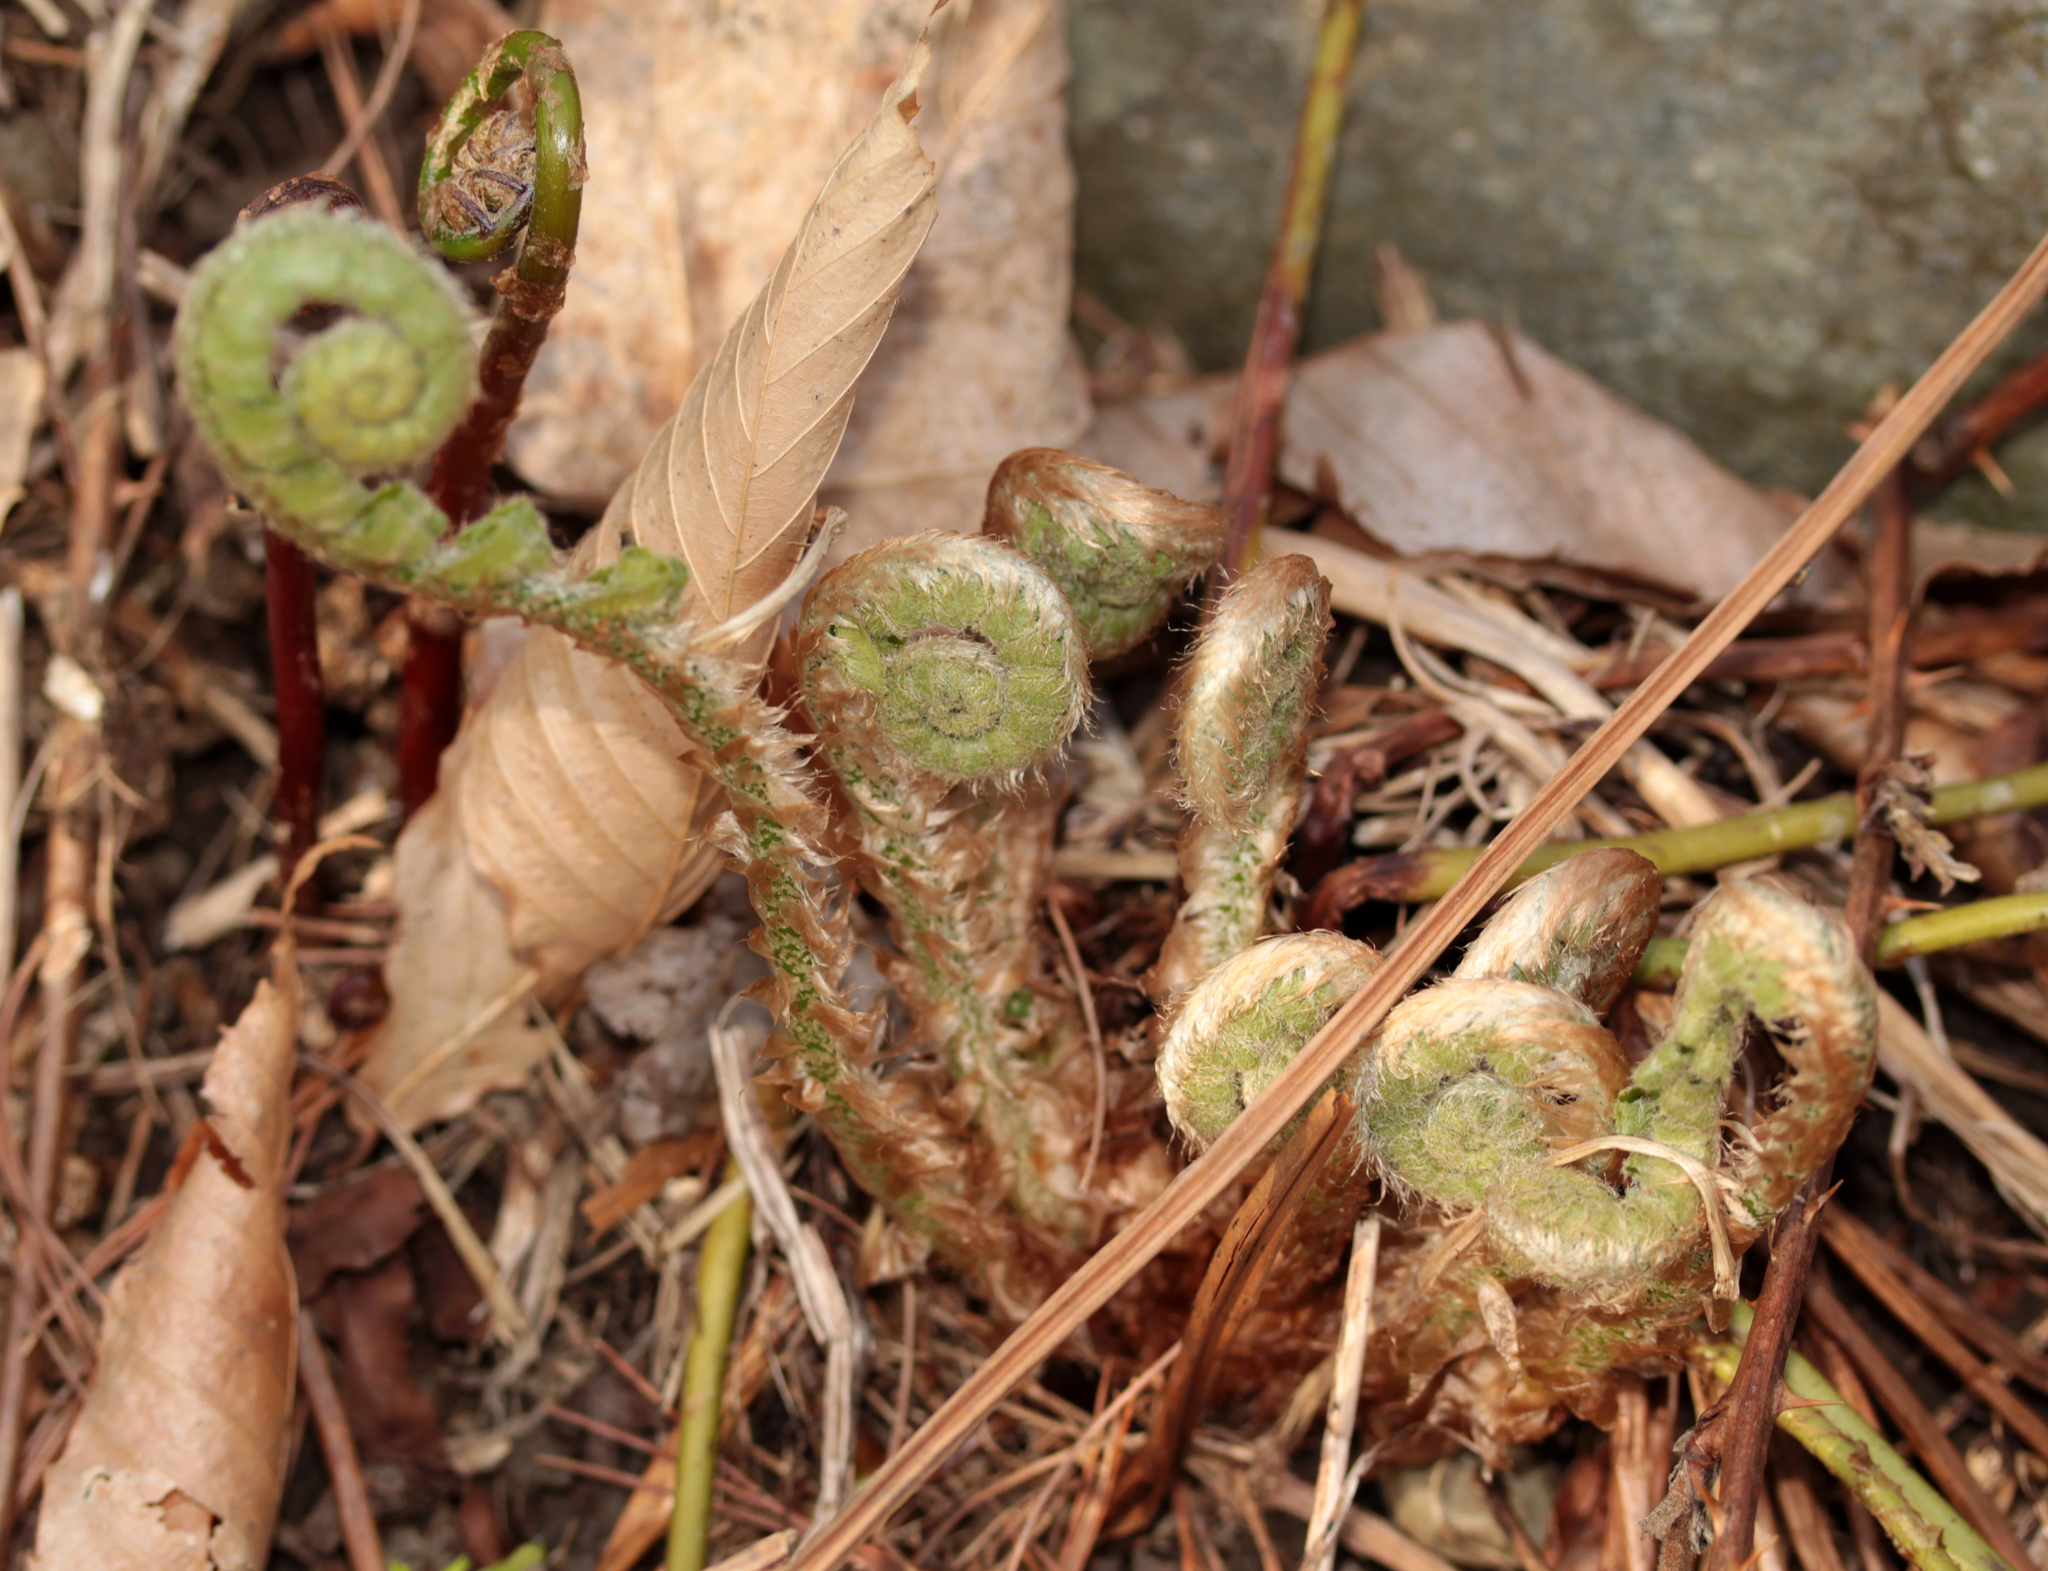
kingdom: Plantae
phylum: Tracheophyta
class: Polypodiopsida
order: Polypodiales
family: Dryopteridaceae
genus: Polystichum
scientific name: Polystichum acrostichoides
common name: Christmas fern
